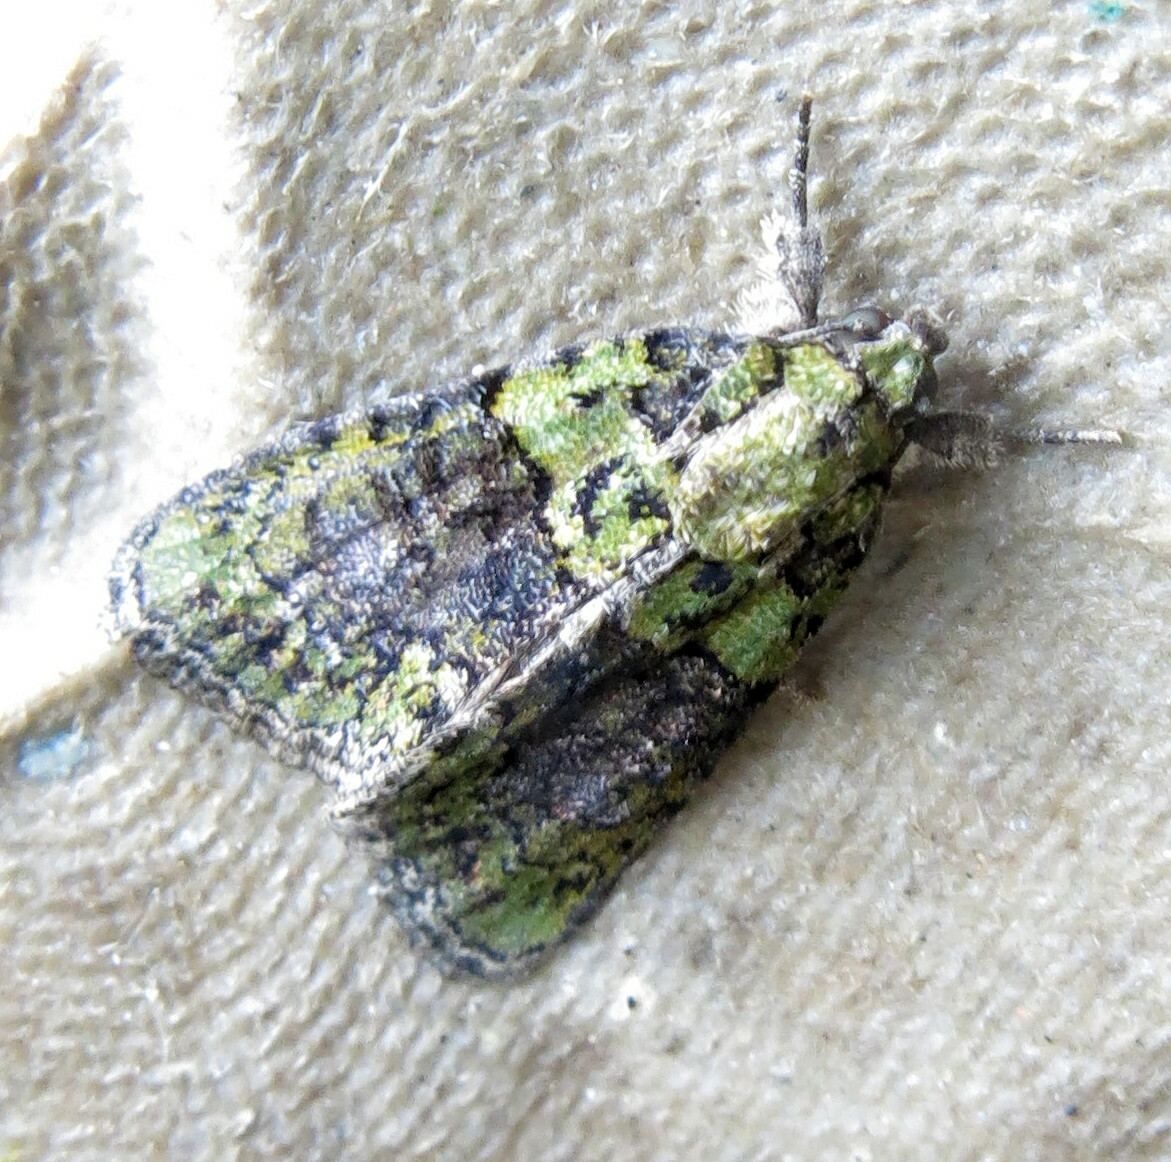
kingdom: Animalia
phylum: Arthropoda
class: Insecta
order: Lepidoptera
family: Noctuidae
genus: Cryphia
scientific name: Cryphia algae
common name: Tree-lichen beauty
